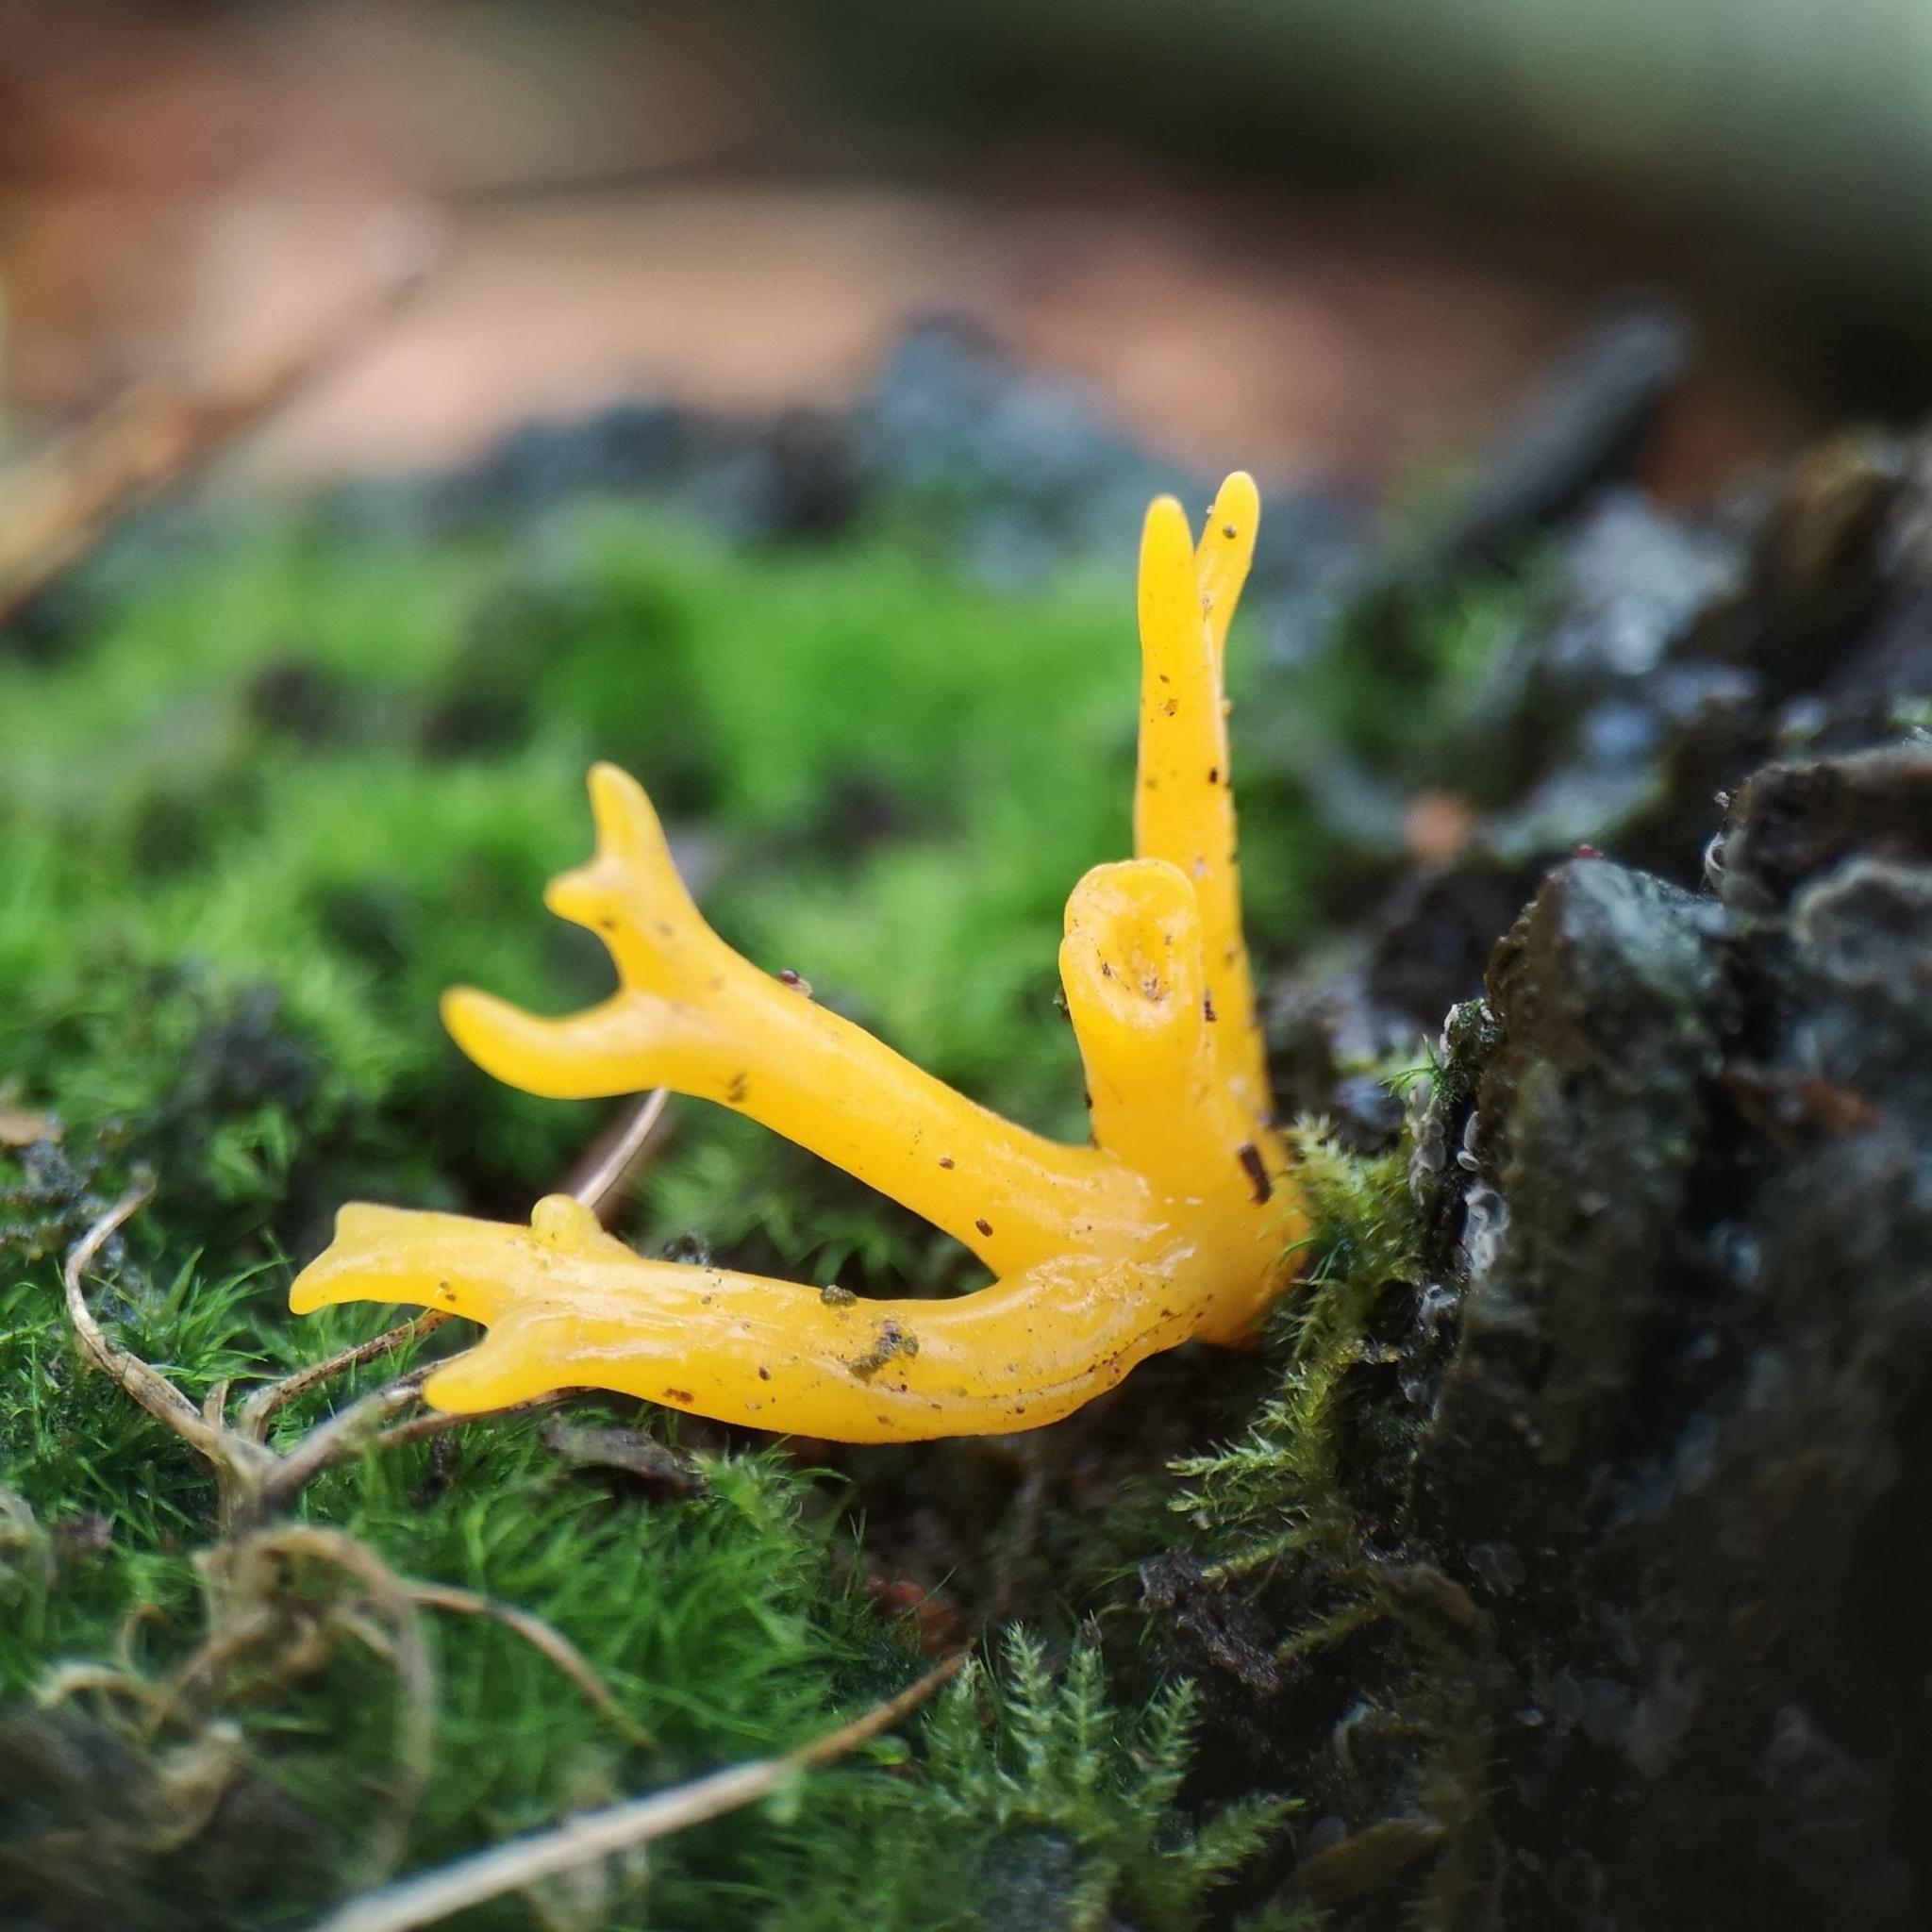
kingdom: Fungi
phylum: Basidiomycota
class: Dacrymycetes
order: Dacrymycetales
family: Dacrymycetaceae
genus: Calocera
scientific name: Calocera viscosa
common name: Yellow stagshorn
